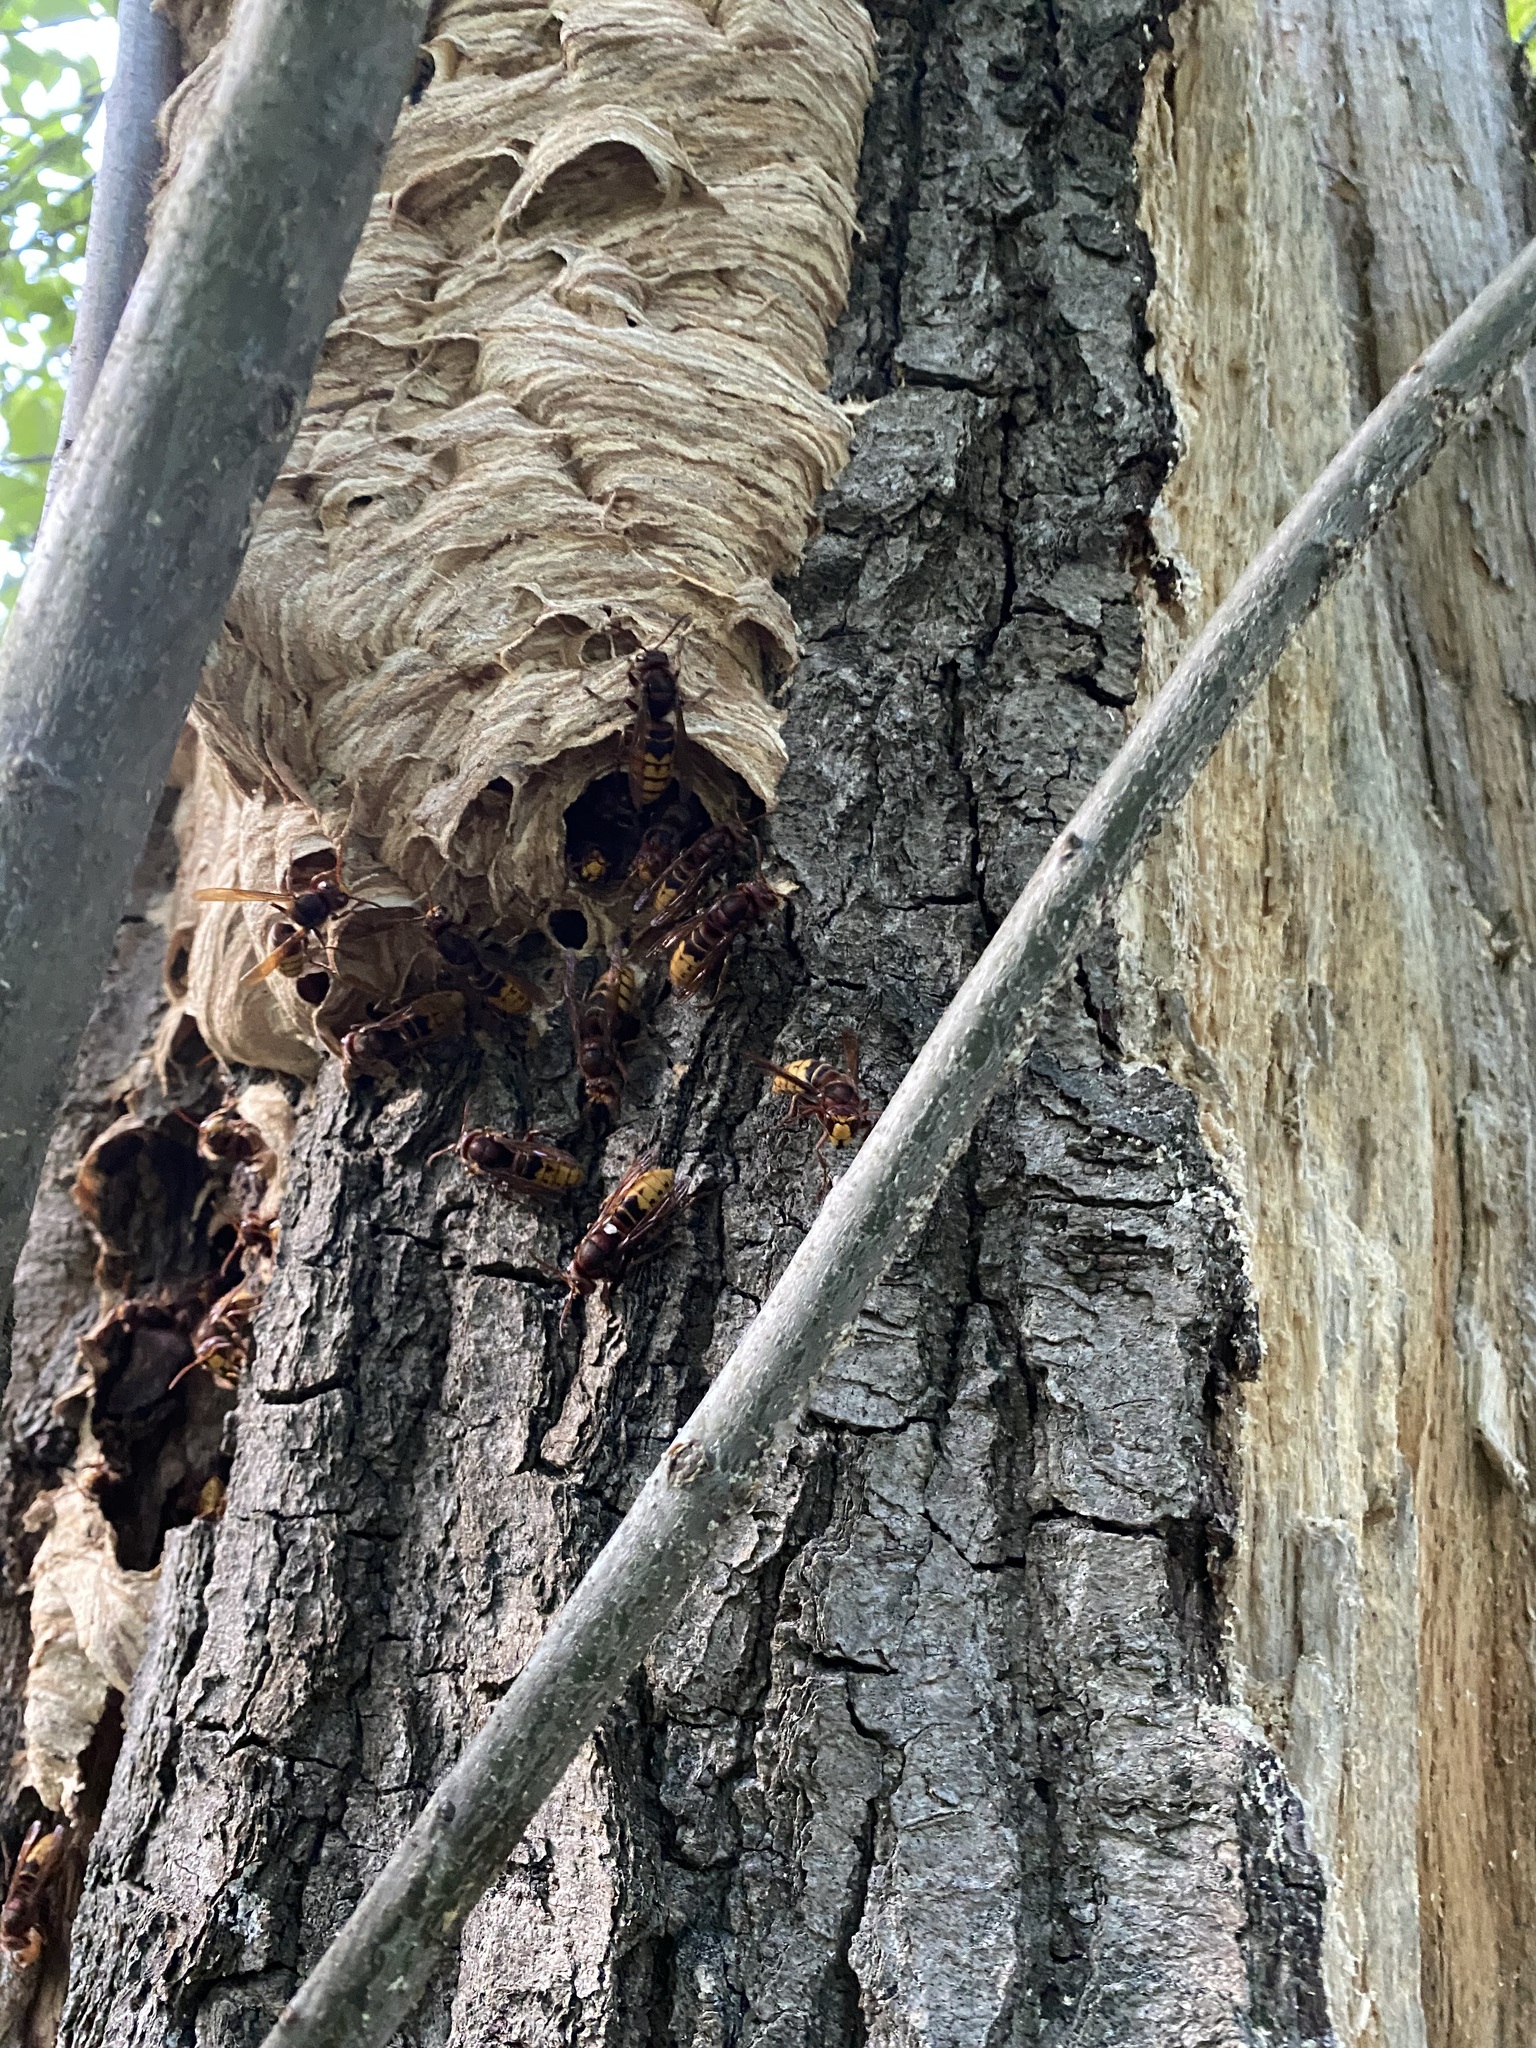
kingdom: Animalia
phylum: Arthropoda
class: Insecta
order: Hymenoptera
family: Vespidae
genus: Vespa
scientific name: Vespa crabro
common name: Hornet
